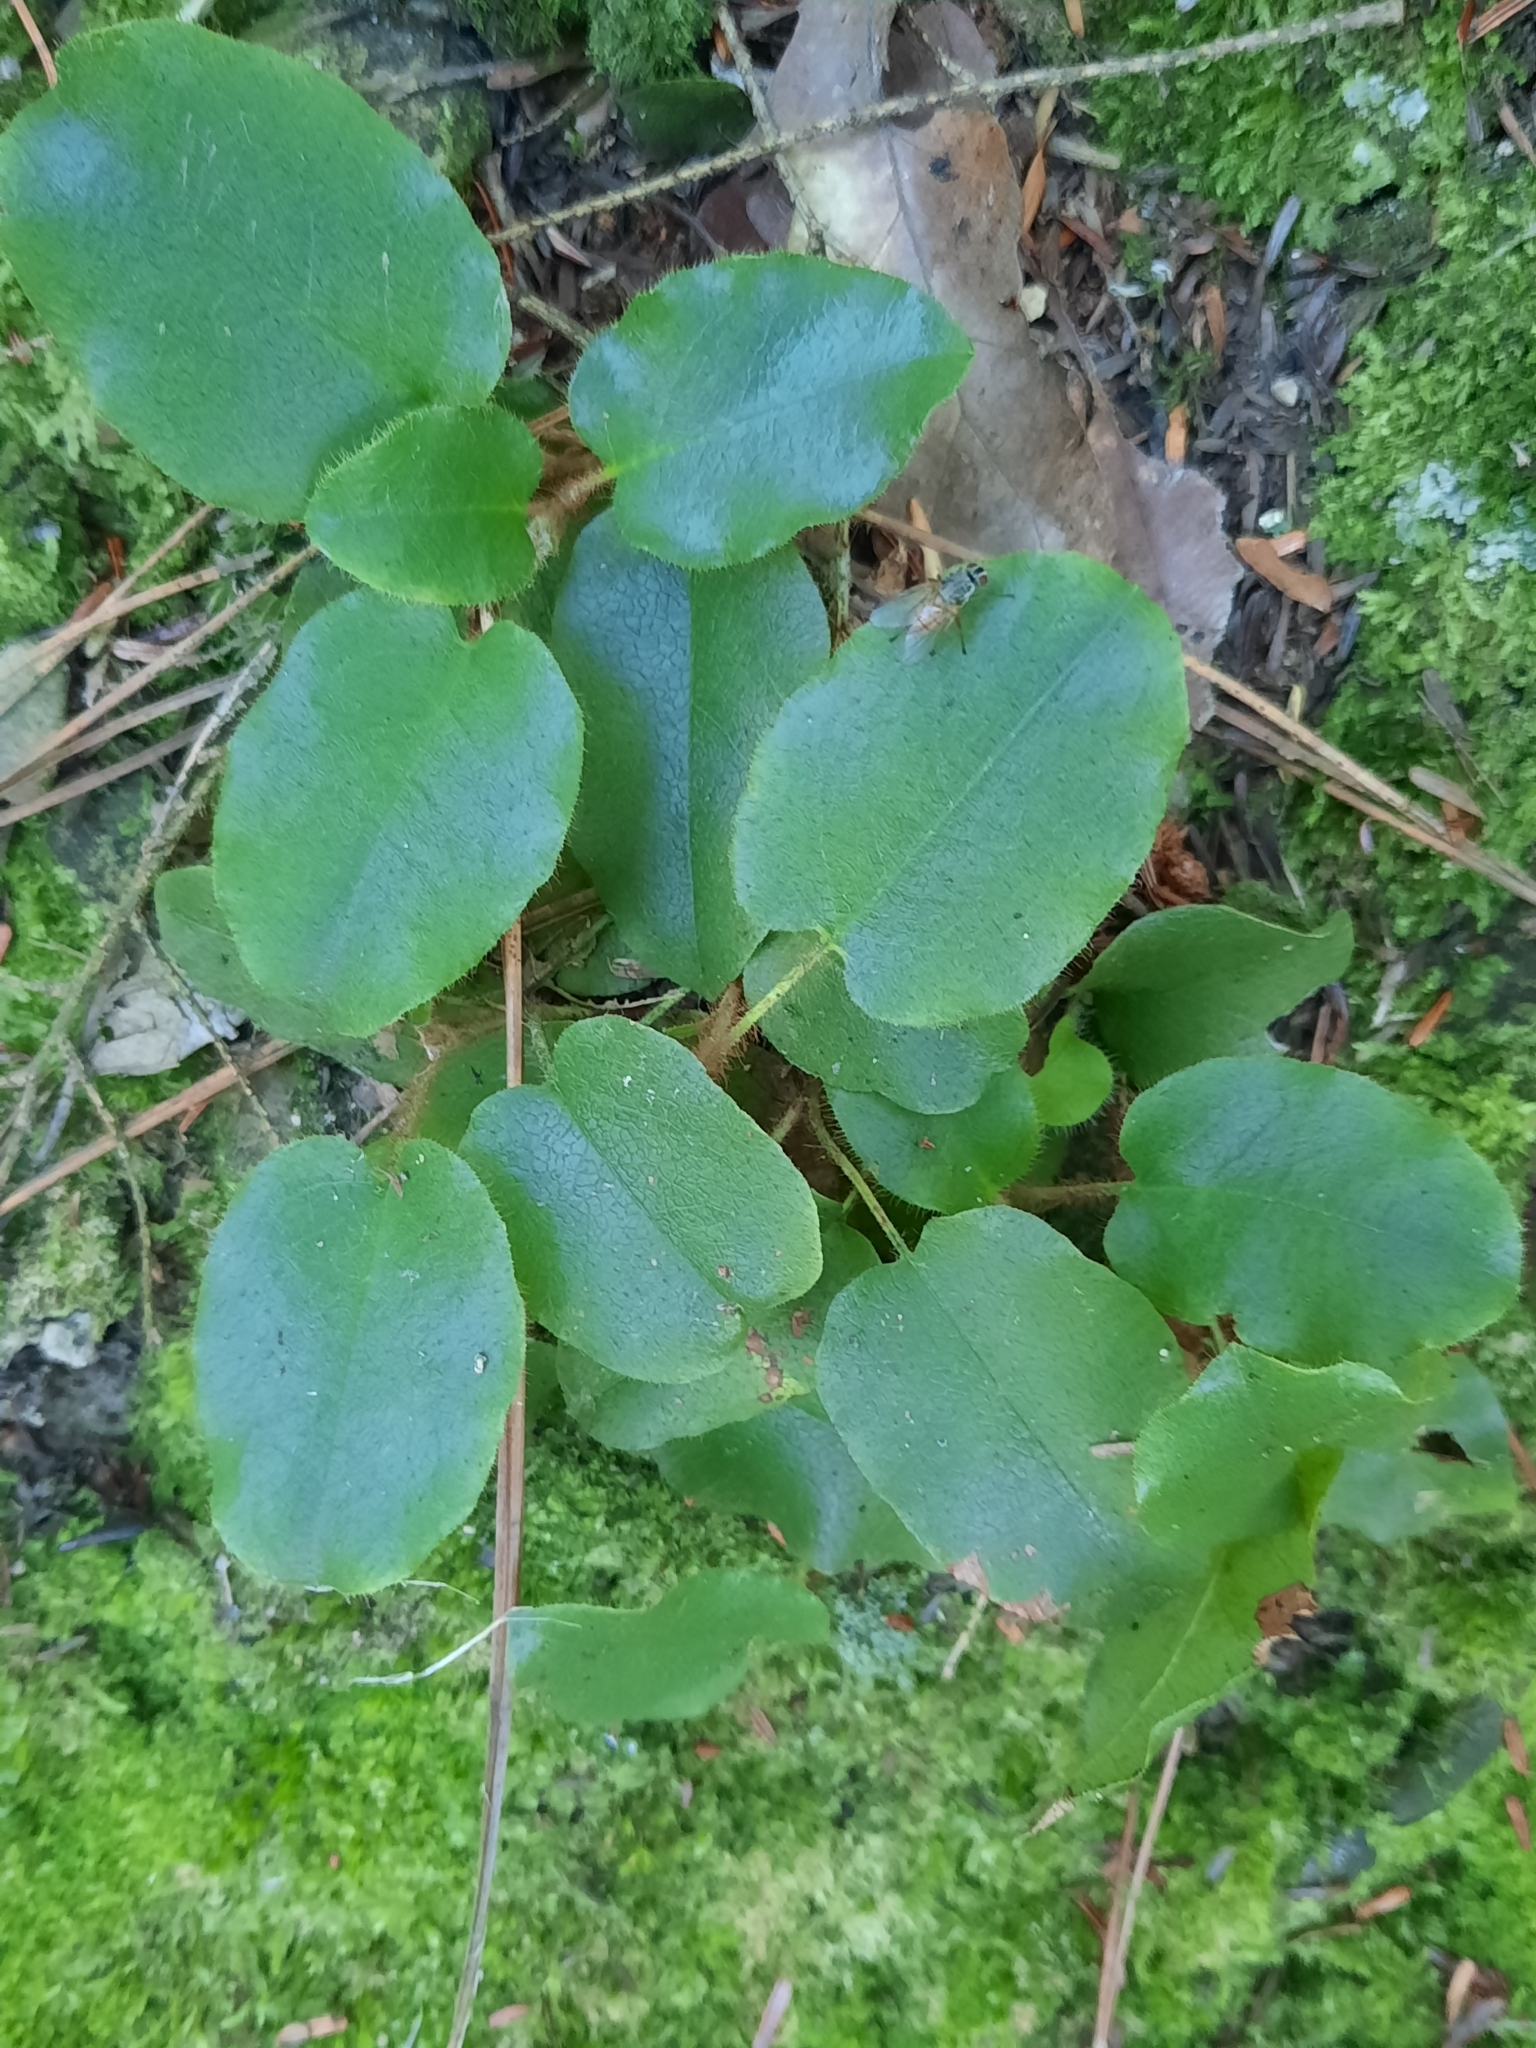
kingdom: Plantae
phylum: Tracheophyta
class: Magnoliopsida
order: Ericales
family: Ericaceae
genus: Epigaea
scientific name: Epigaea repens
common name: Gravelroot
